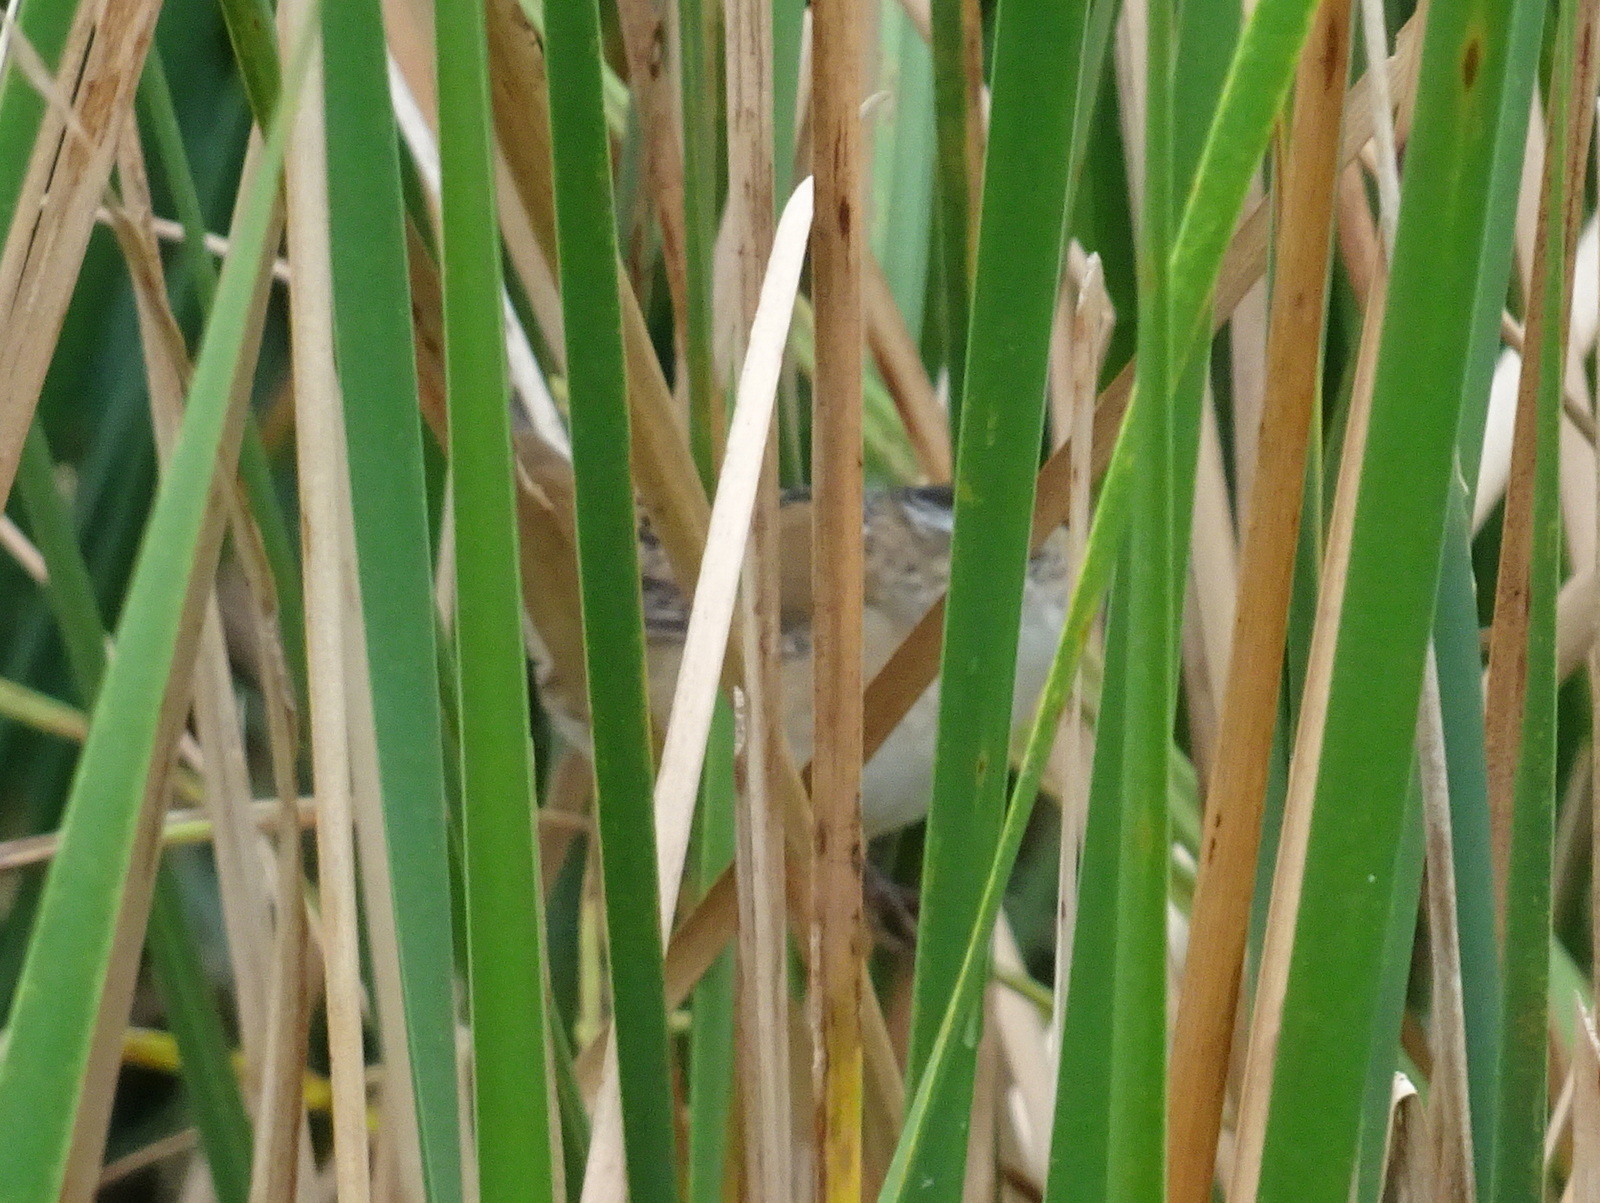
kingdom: Animalia
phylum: Chordata
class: Aves
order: Passeriformes
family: Troglodytidae
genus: Cistothorus
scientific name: Cistothorus palustris
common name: Marsh wren
